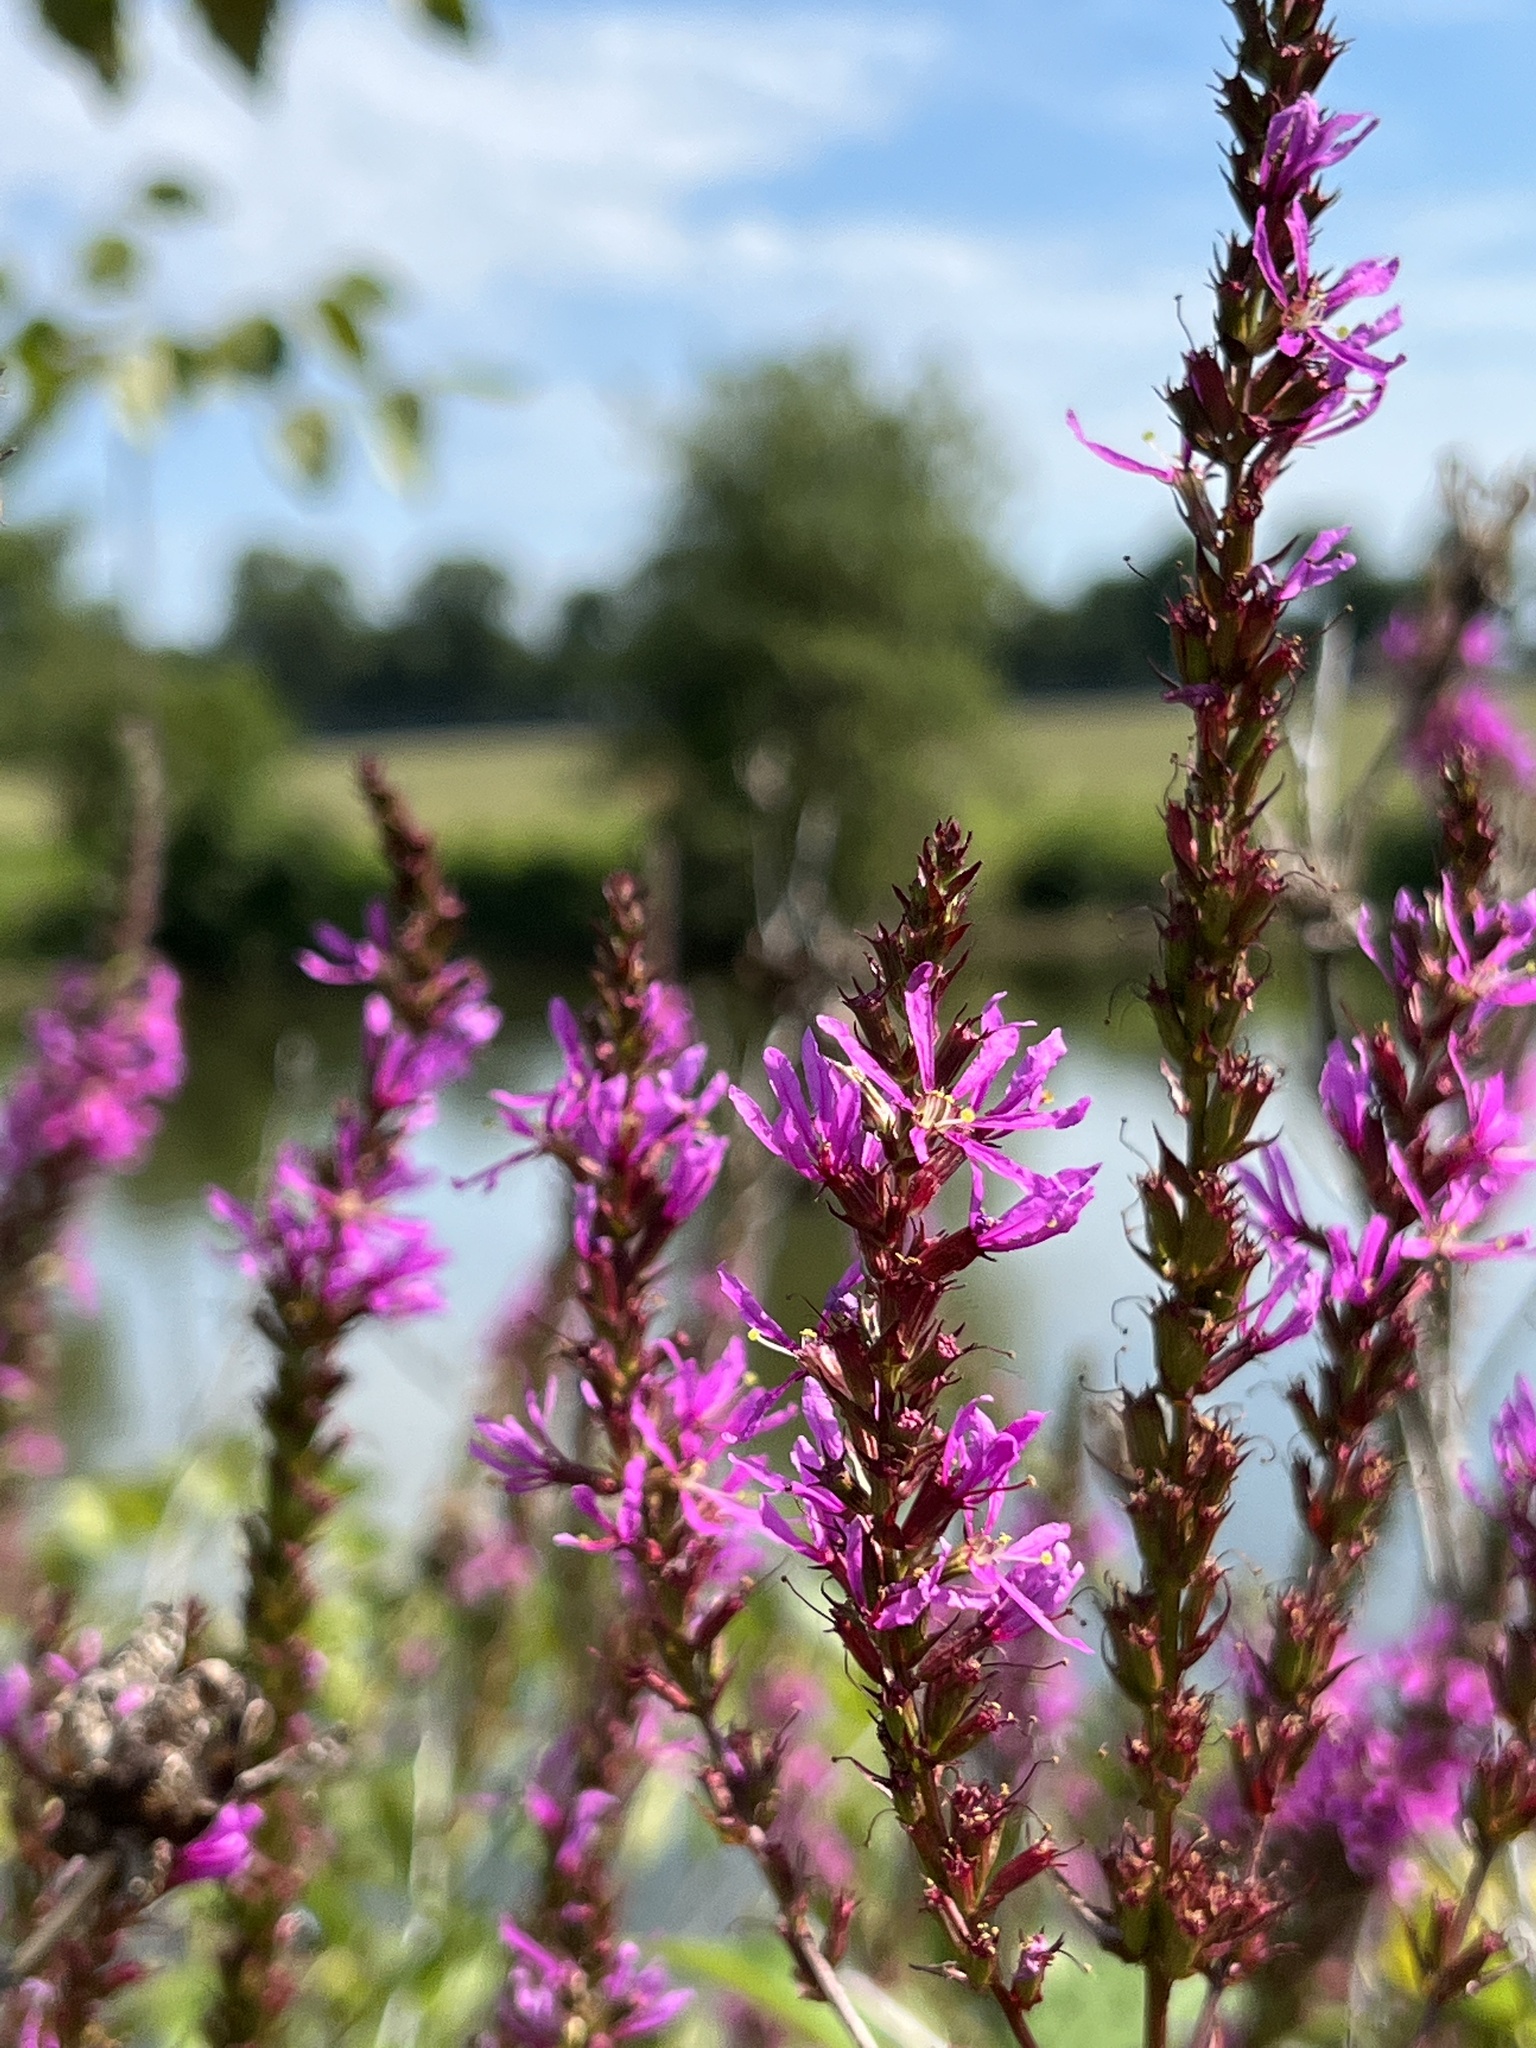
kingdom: Plantae
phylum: Tracheophyta
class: Magnoliopsida
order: Myrtales
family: Lythraceae
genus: Lythrum
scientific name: Lythrum salicaria
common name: Purple loosestrife
